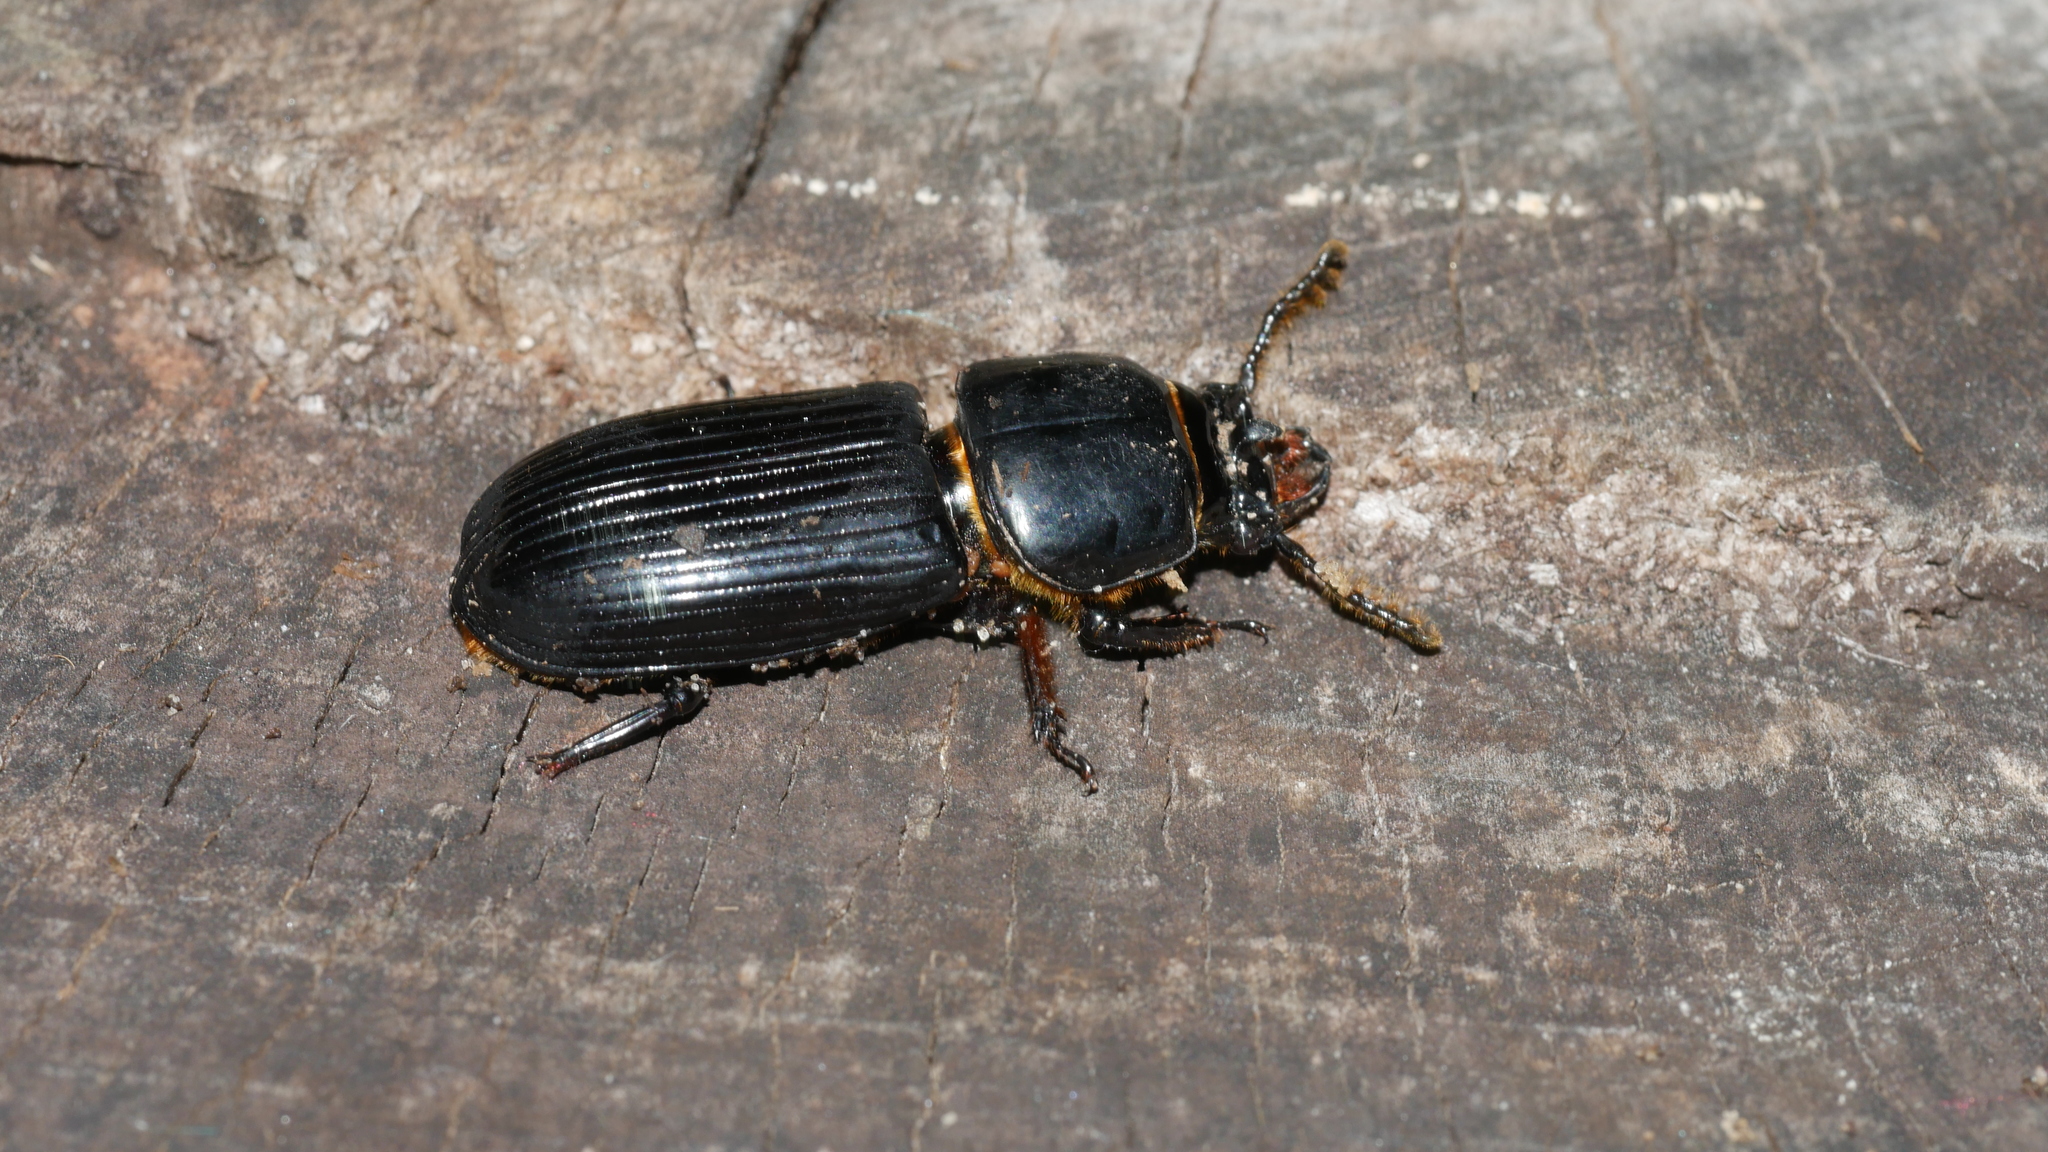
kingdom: Animalia
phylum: Arthropoda
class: Insecta
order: Coleoptera
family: Passalidae
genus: Odontotaenius
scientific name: Odontotaenius disjunctus
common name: Patent leather beetle
